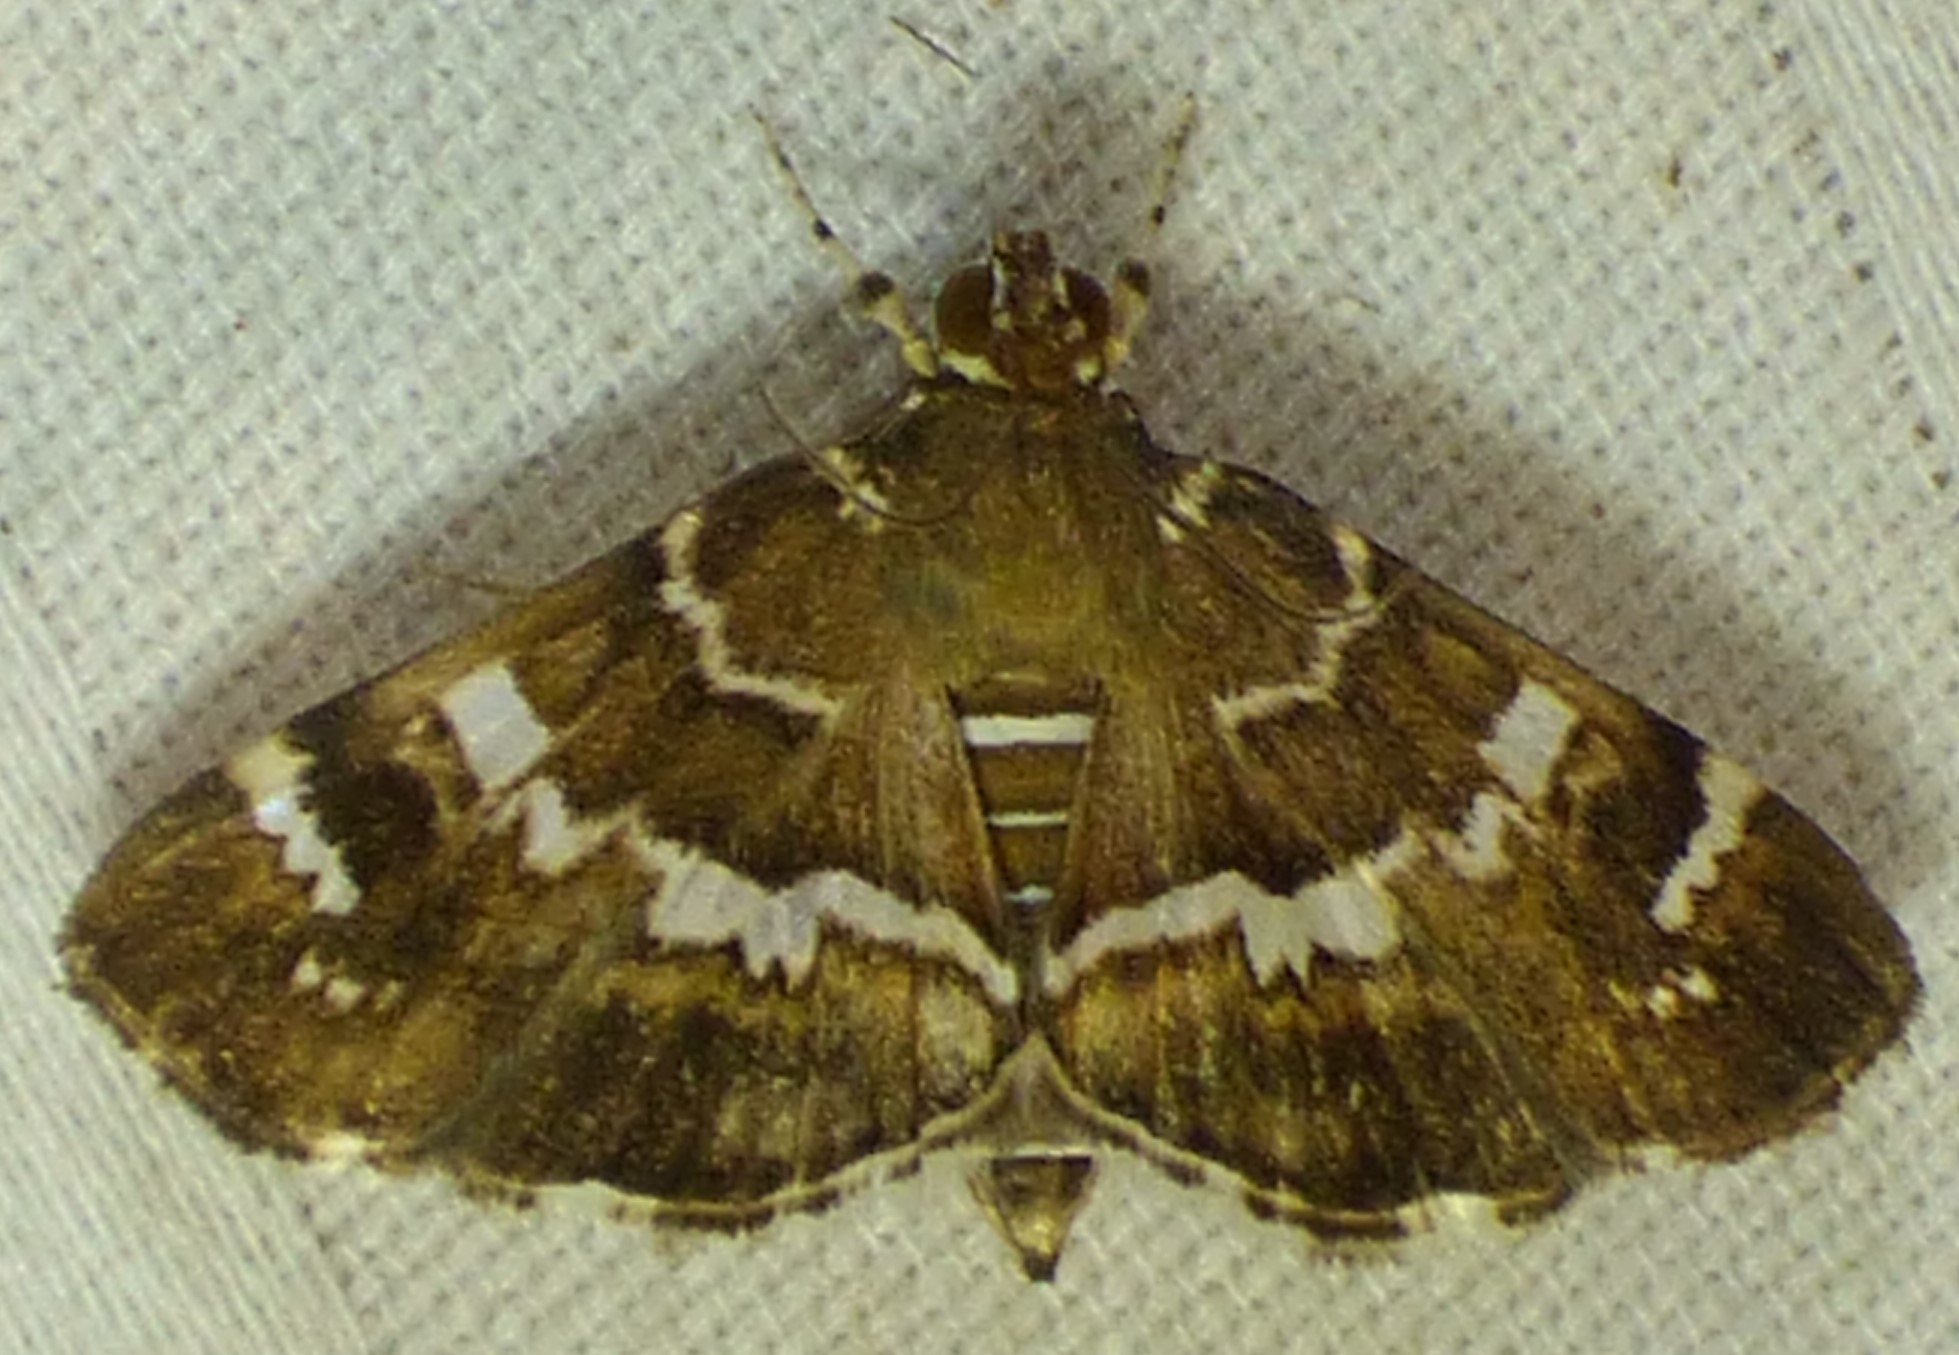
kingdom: Animalia
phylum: Arthropoda
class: Insecta
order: Lepidoptera
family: Crambidae
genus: Hymenia
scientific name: Hymenia perspectalis
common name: Spotted beet webworm
